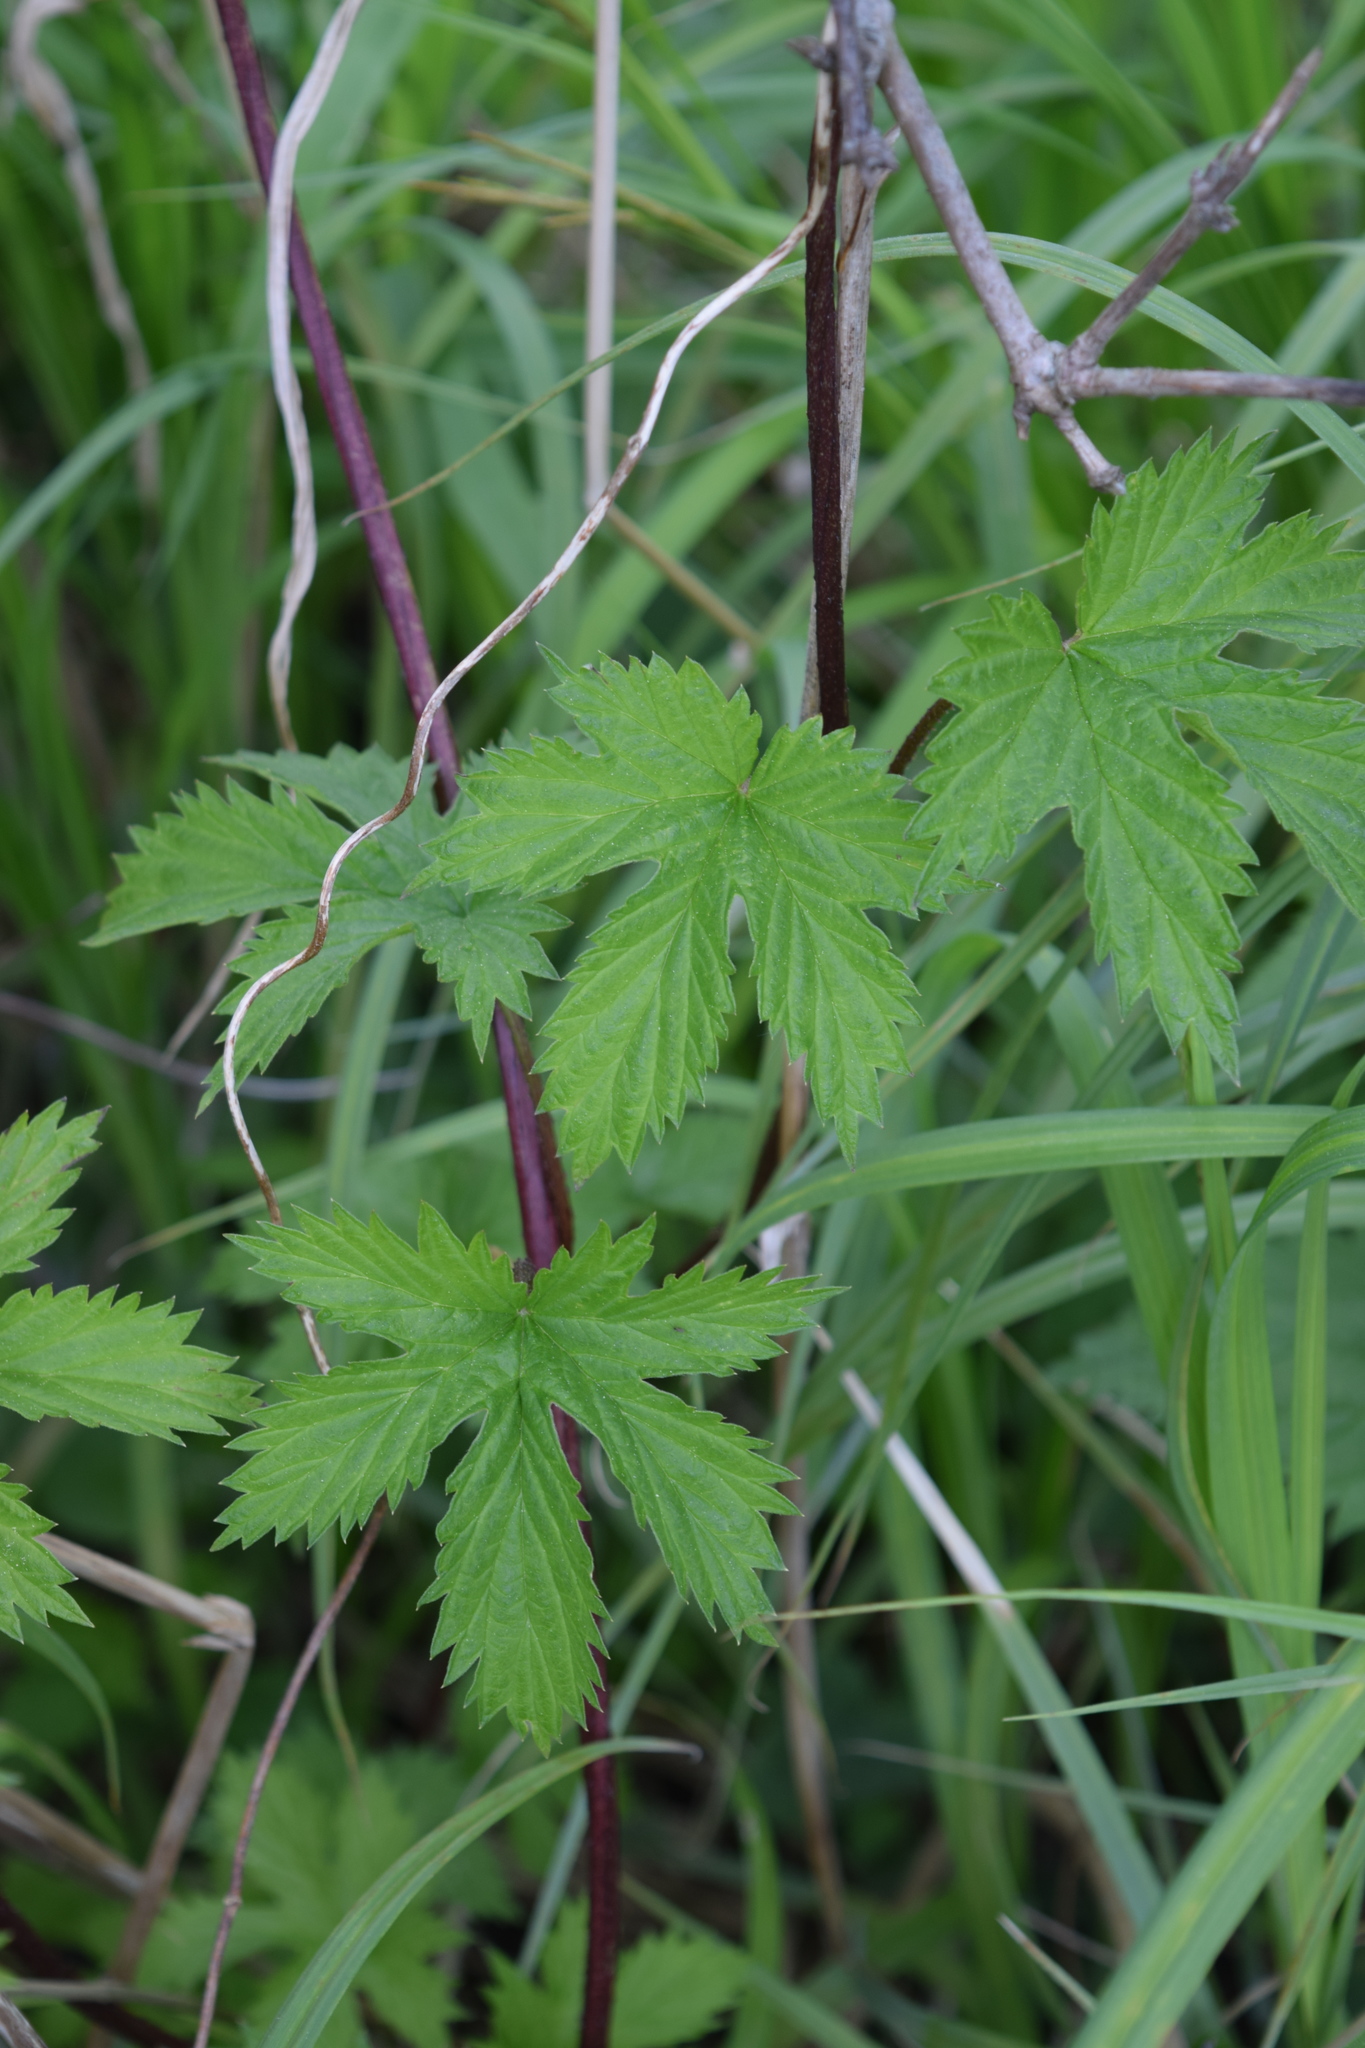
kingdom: Plantae
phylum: Tracheophyta
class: Magnoliopsida
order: Rosales
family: Cannabaceae
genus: Humulus
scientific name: Humulus lupulus
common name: Hop
